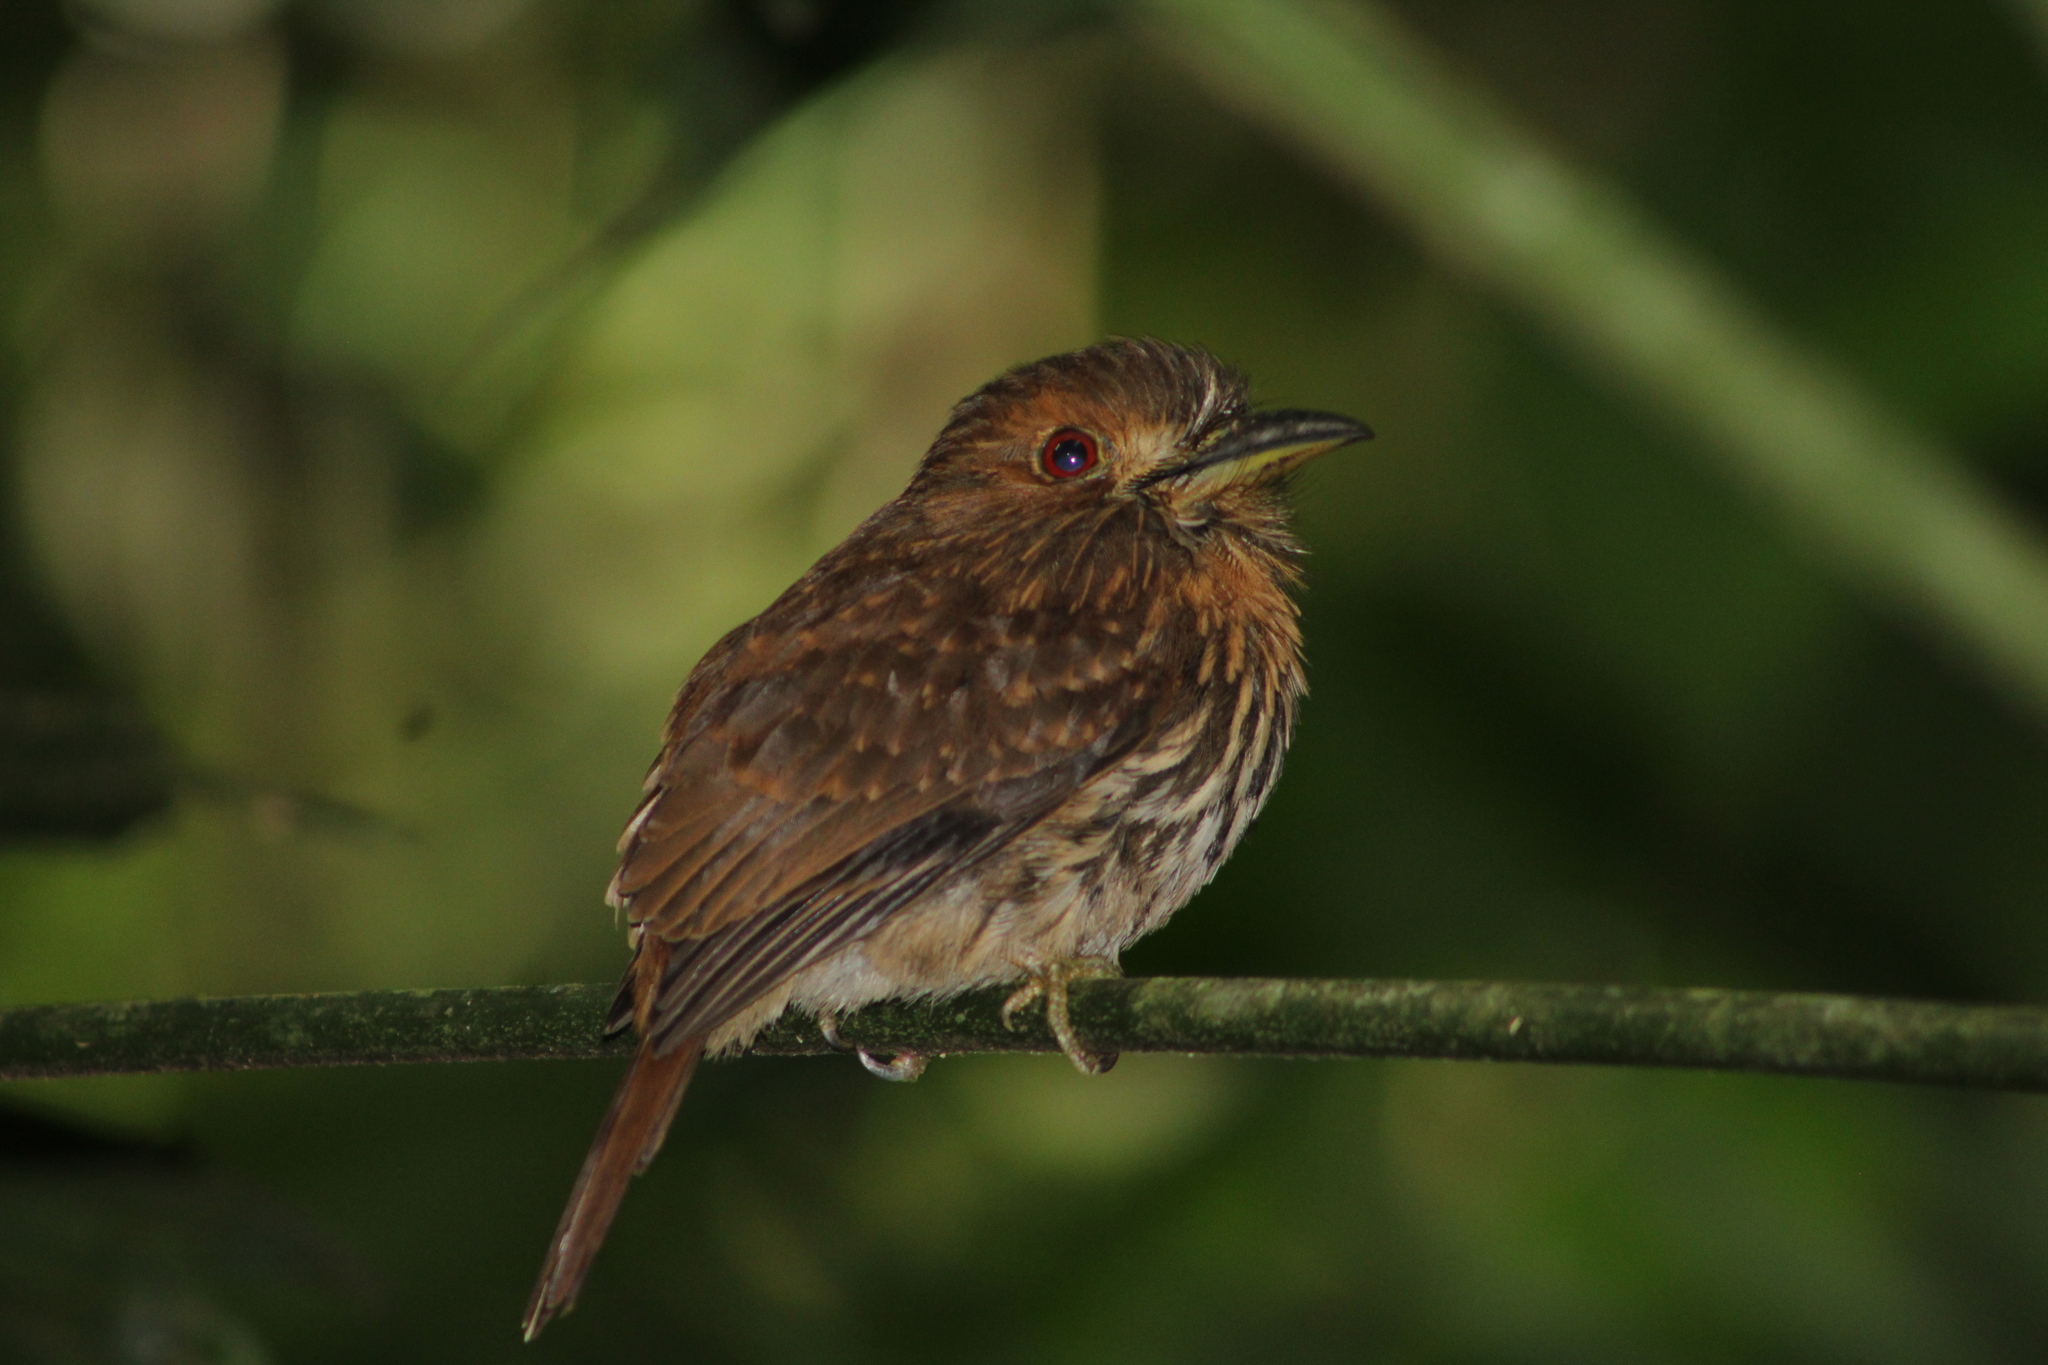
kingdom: Animalia
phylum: Chordata
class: Aves
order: Piciformes
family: Bucconidae
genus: Malacoptila
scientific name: Malacoptila panamensis
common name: White-whiskered puffbird
